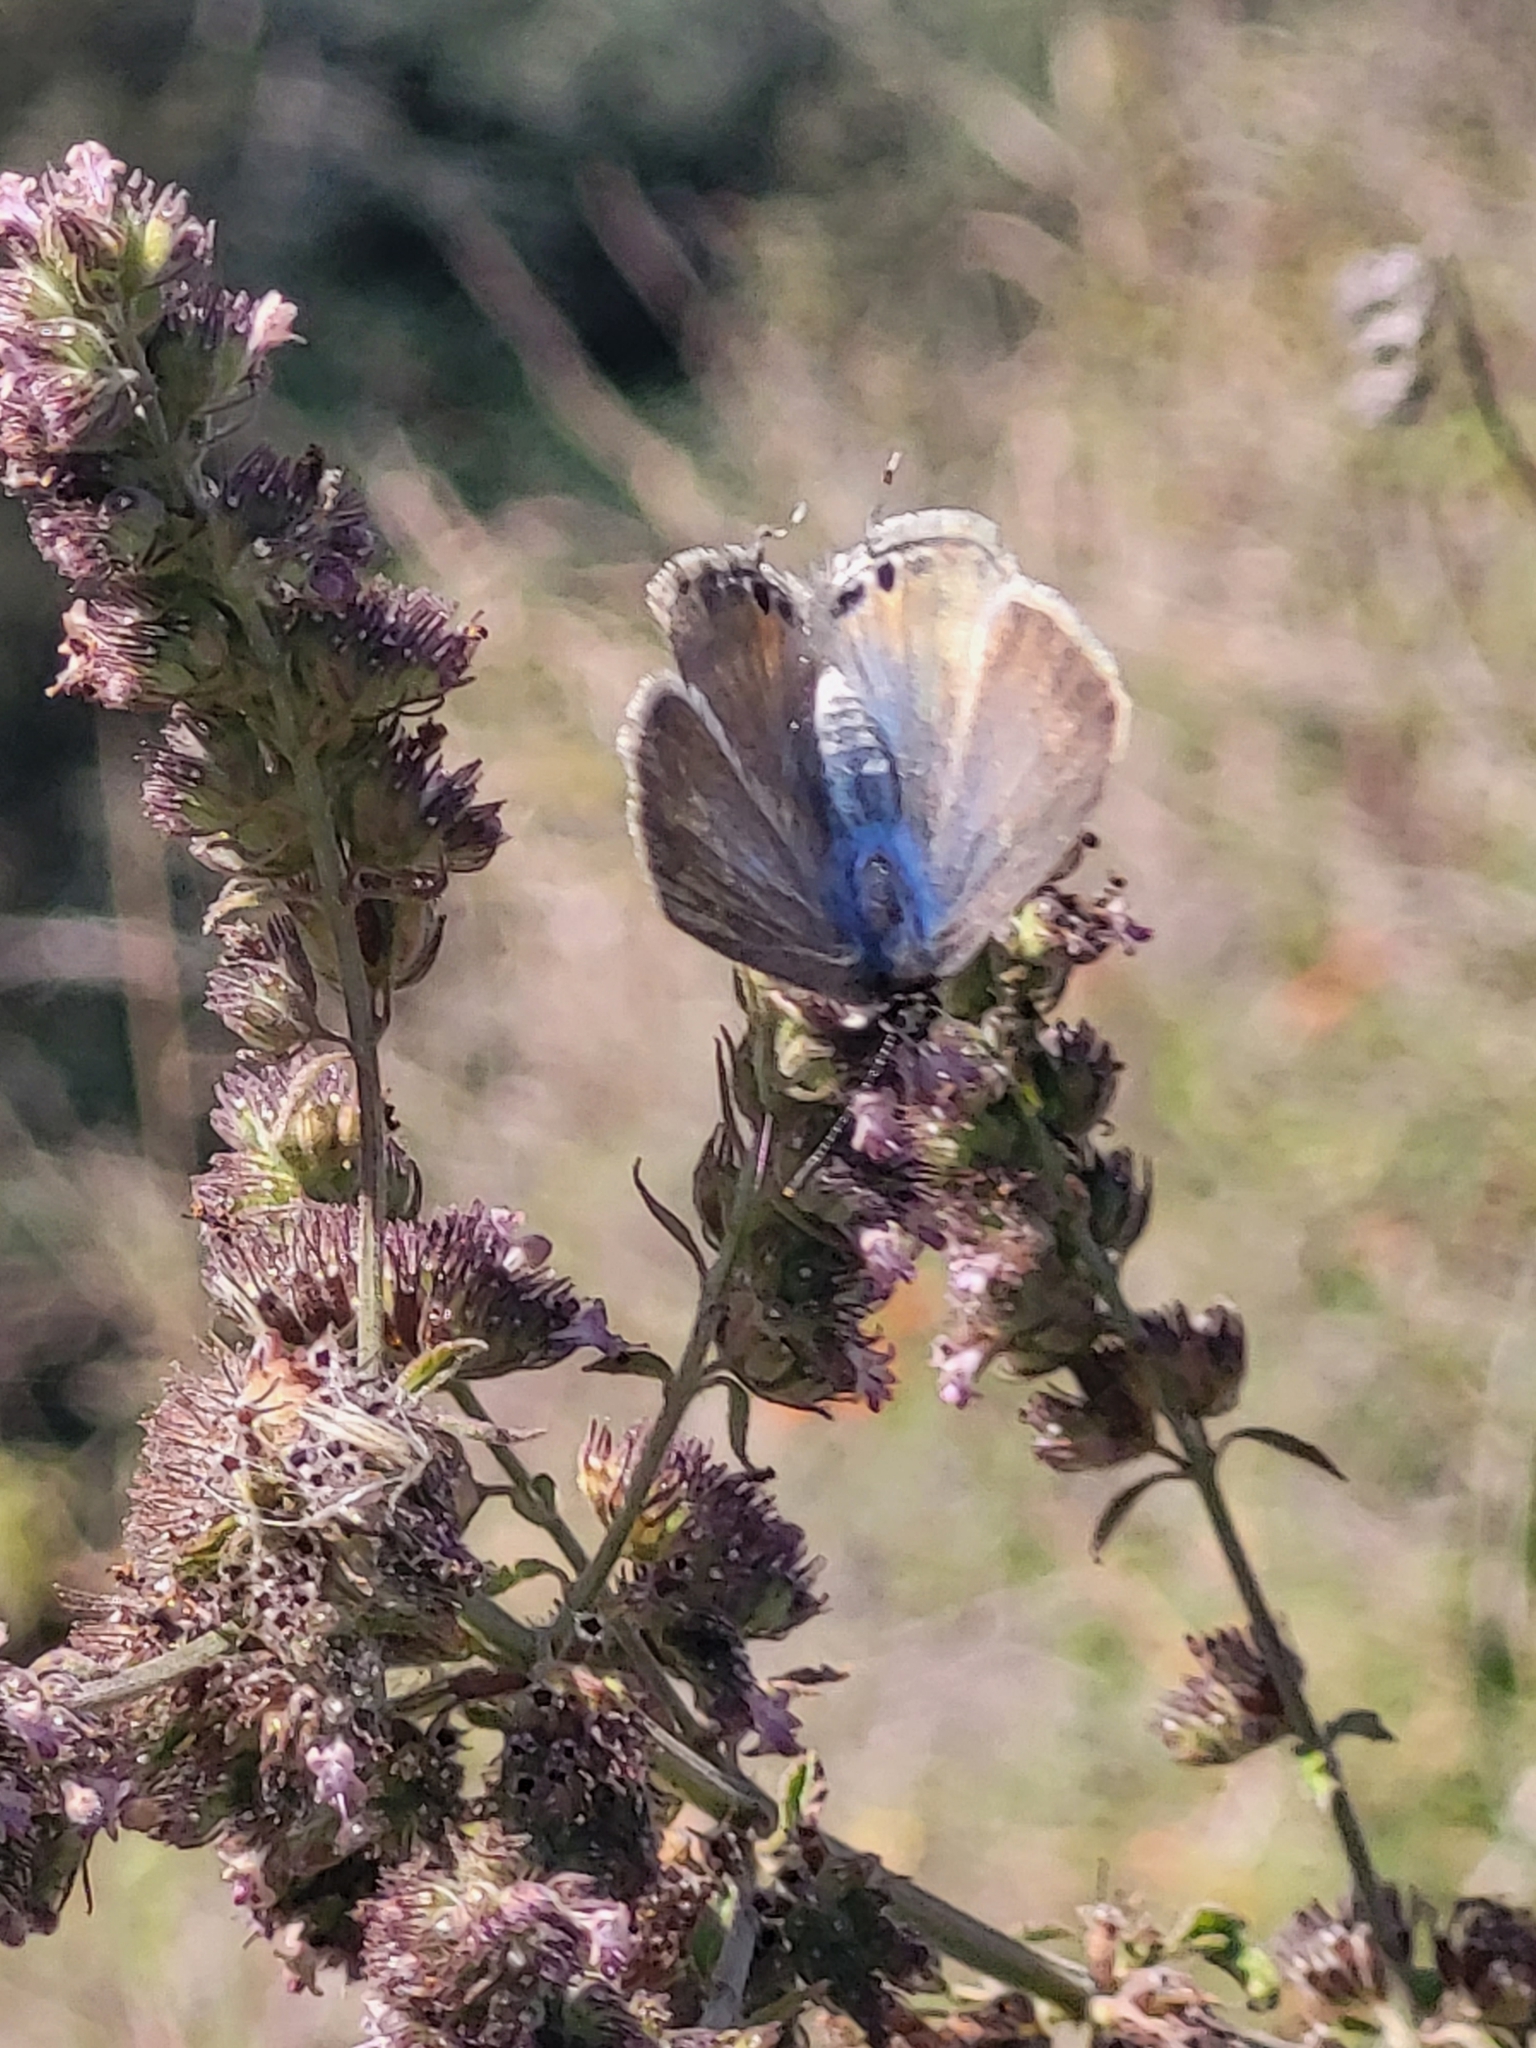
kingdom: Animalia
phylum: Arthropoda
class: Insecta
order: Lepidoptera
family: Lycaenidae
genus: Lampides
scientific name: Lampides boeticus
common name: Long-tailed blue
